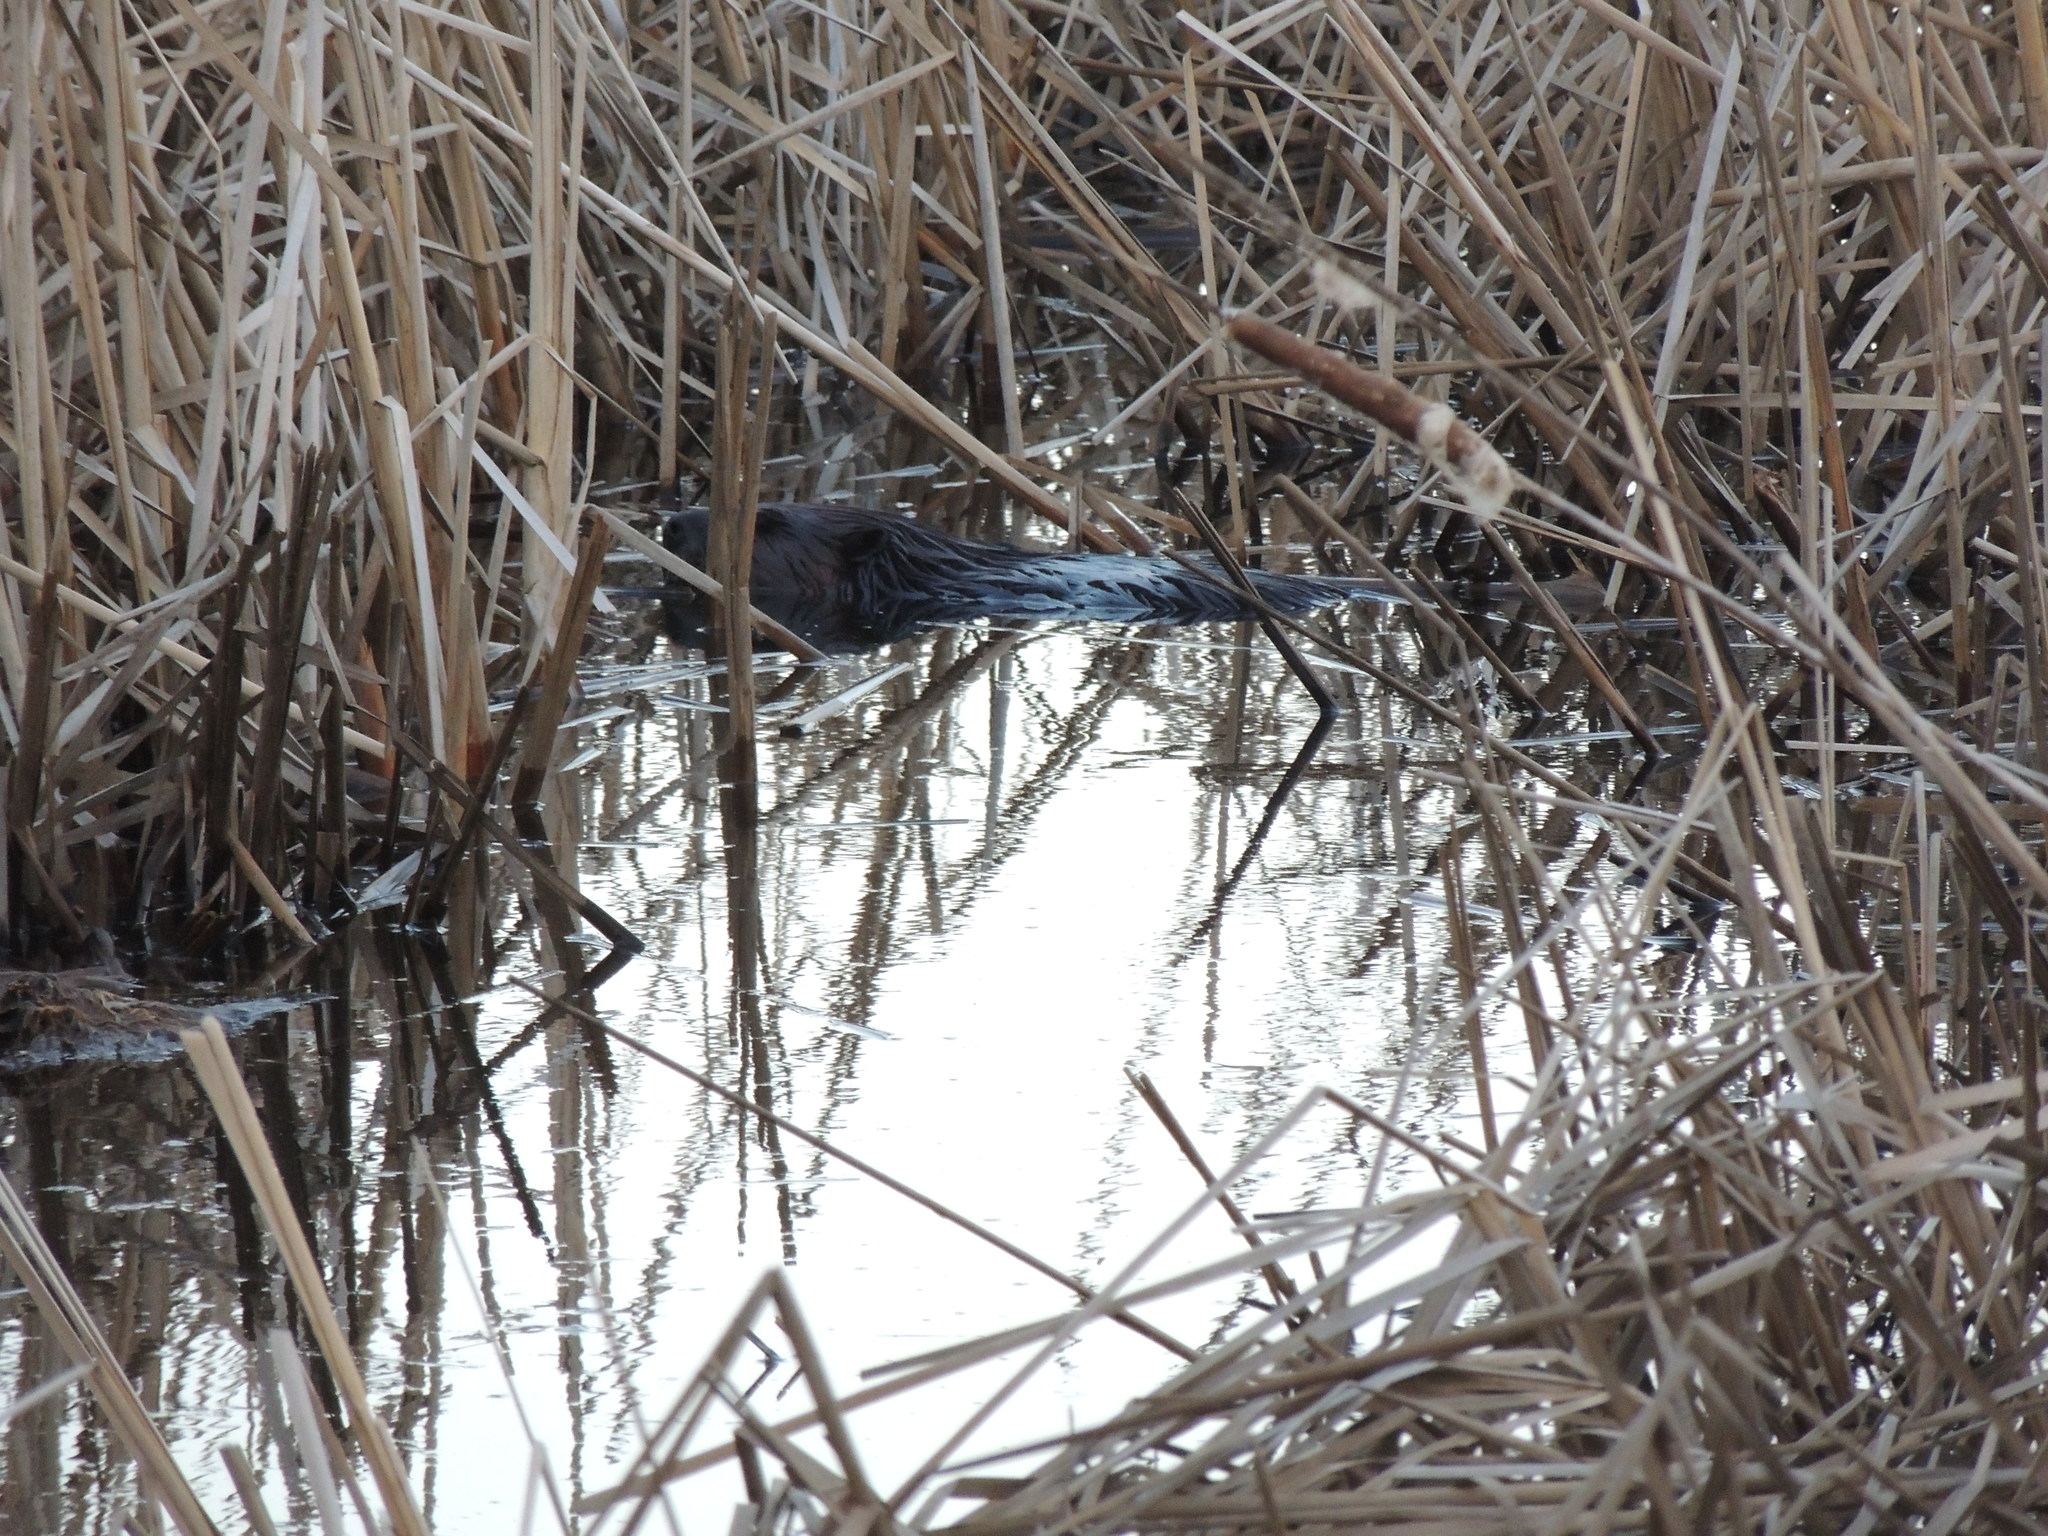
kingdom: Animalia
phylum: Chordata
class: Mammalia
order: Rodentia
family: Castoridae
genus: Castor
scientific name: Castor canadensis
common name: American beaver
